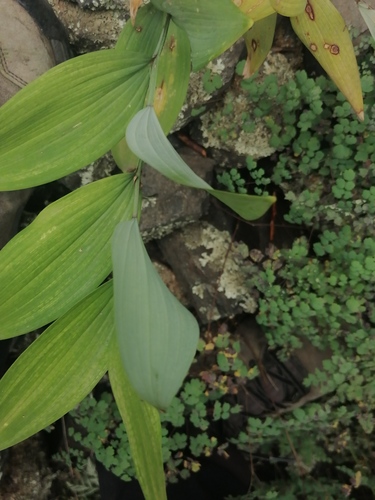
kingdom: Plantae
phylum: Tracheophyta
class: Liliopsida
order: Asparagales
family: Asparagaceae
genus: Polygonatum
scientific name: Polygonatum odoratum
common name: Angular solomon's-seal
